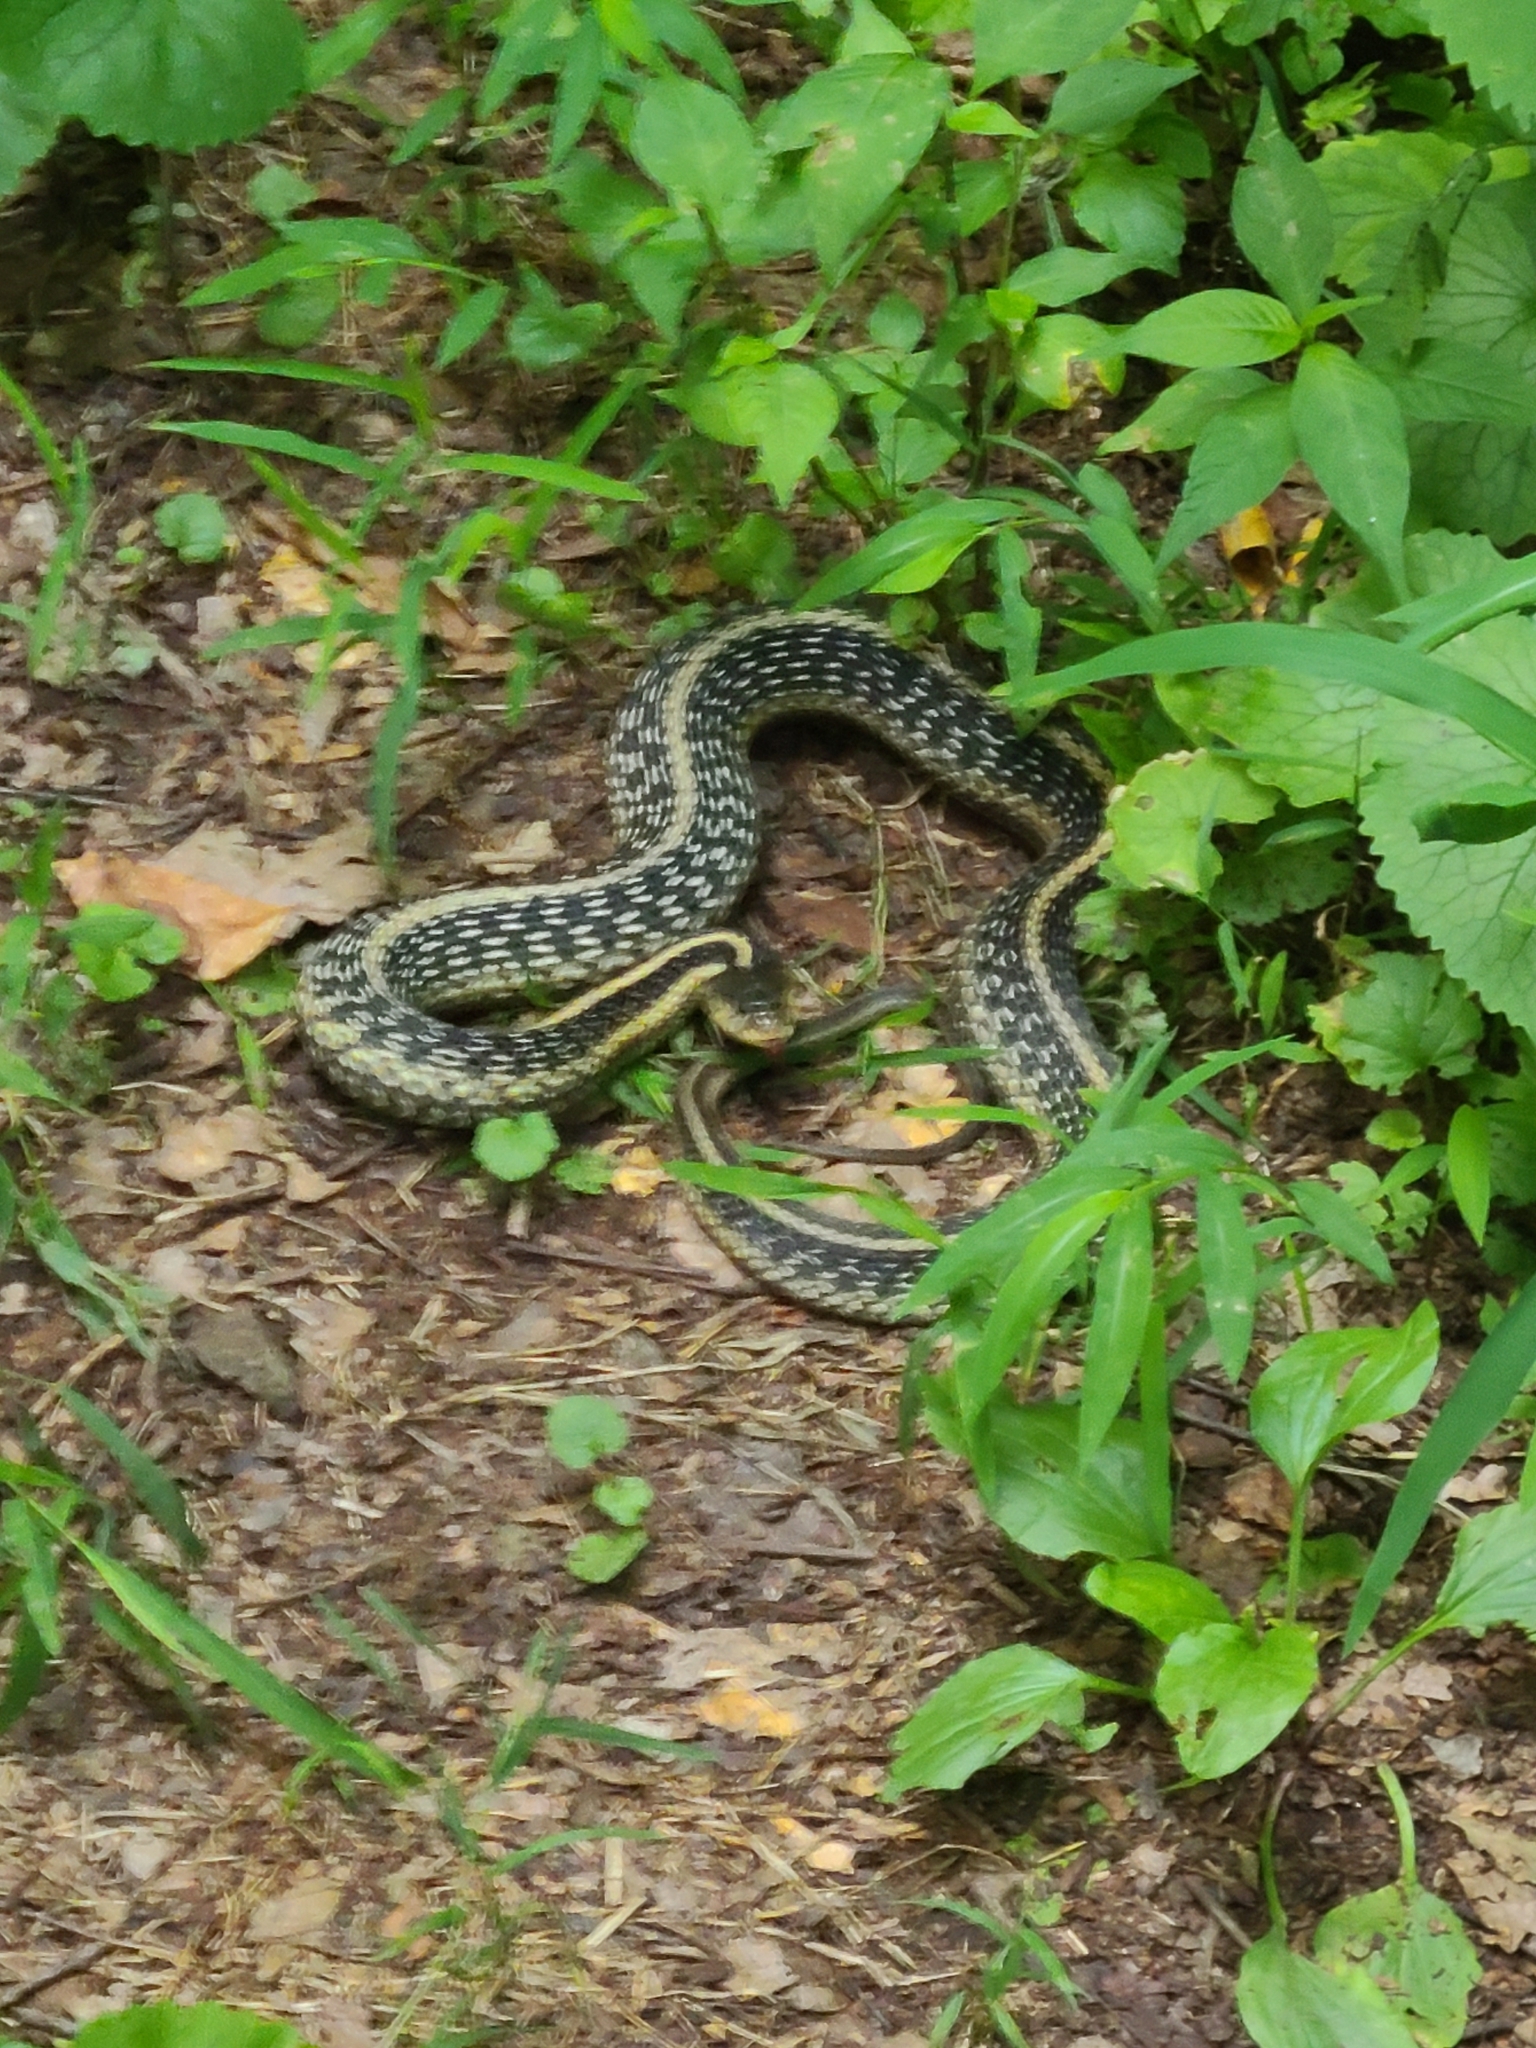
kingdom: Animalia
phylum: Chordata
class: Squamata
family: Colubridae
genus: Thamnophis
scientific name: Thamnophis sirtalis
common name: Common garter snake
